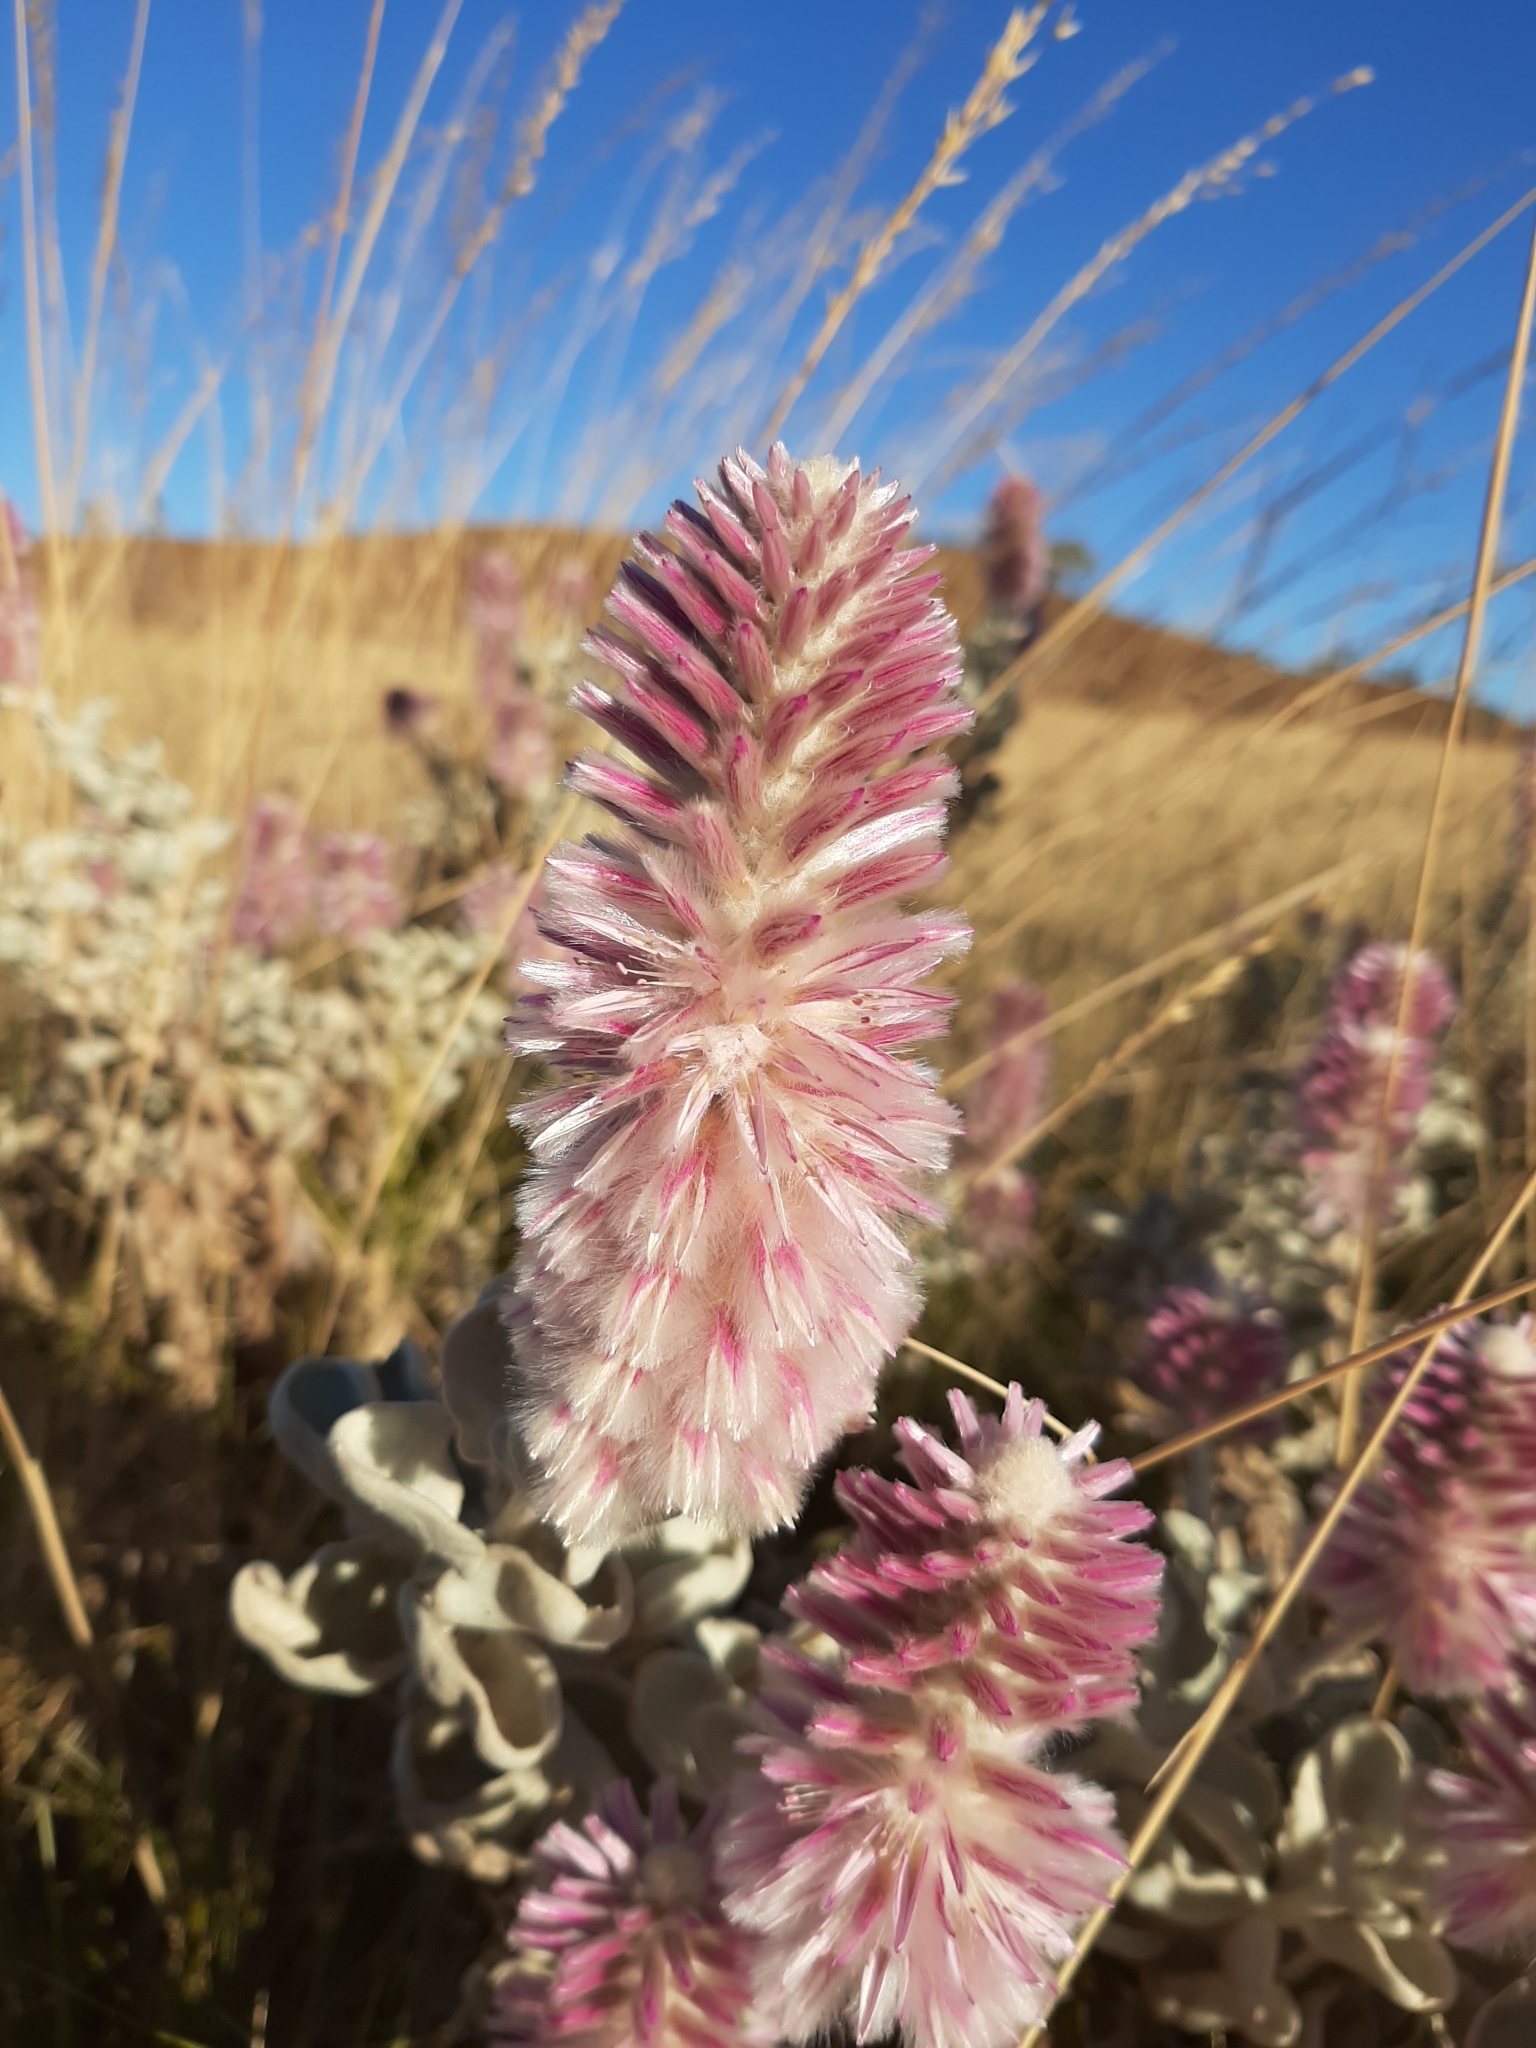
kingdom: Plantae
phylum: Tracheophyta
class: Magnoliopsida
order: Caryophyllales
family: Amaranthaceae
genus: Ptilotus
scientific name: Ptilotus rotundifolius
